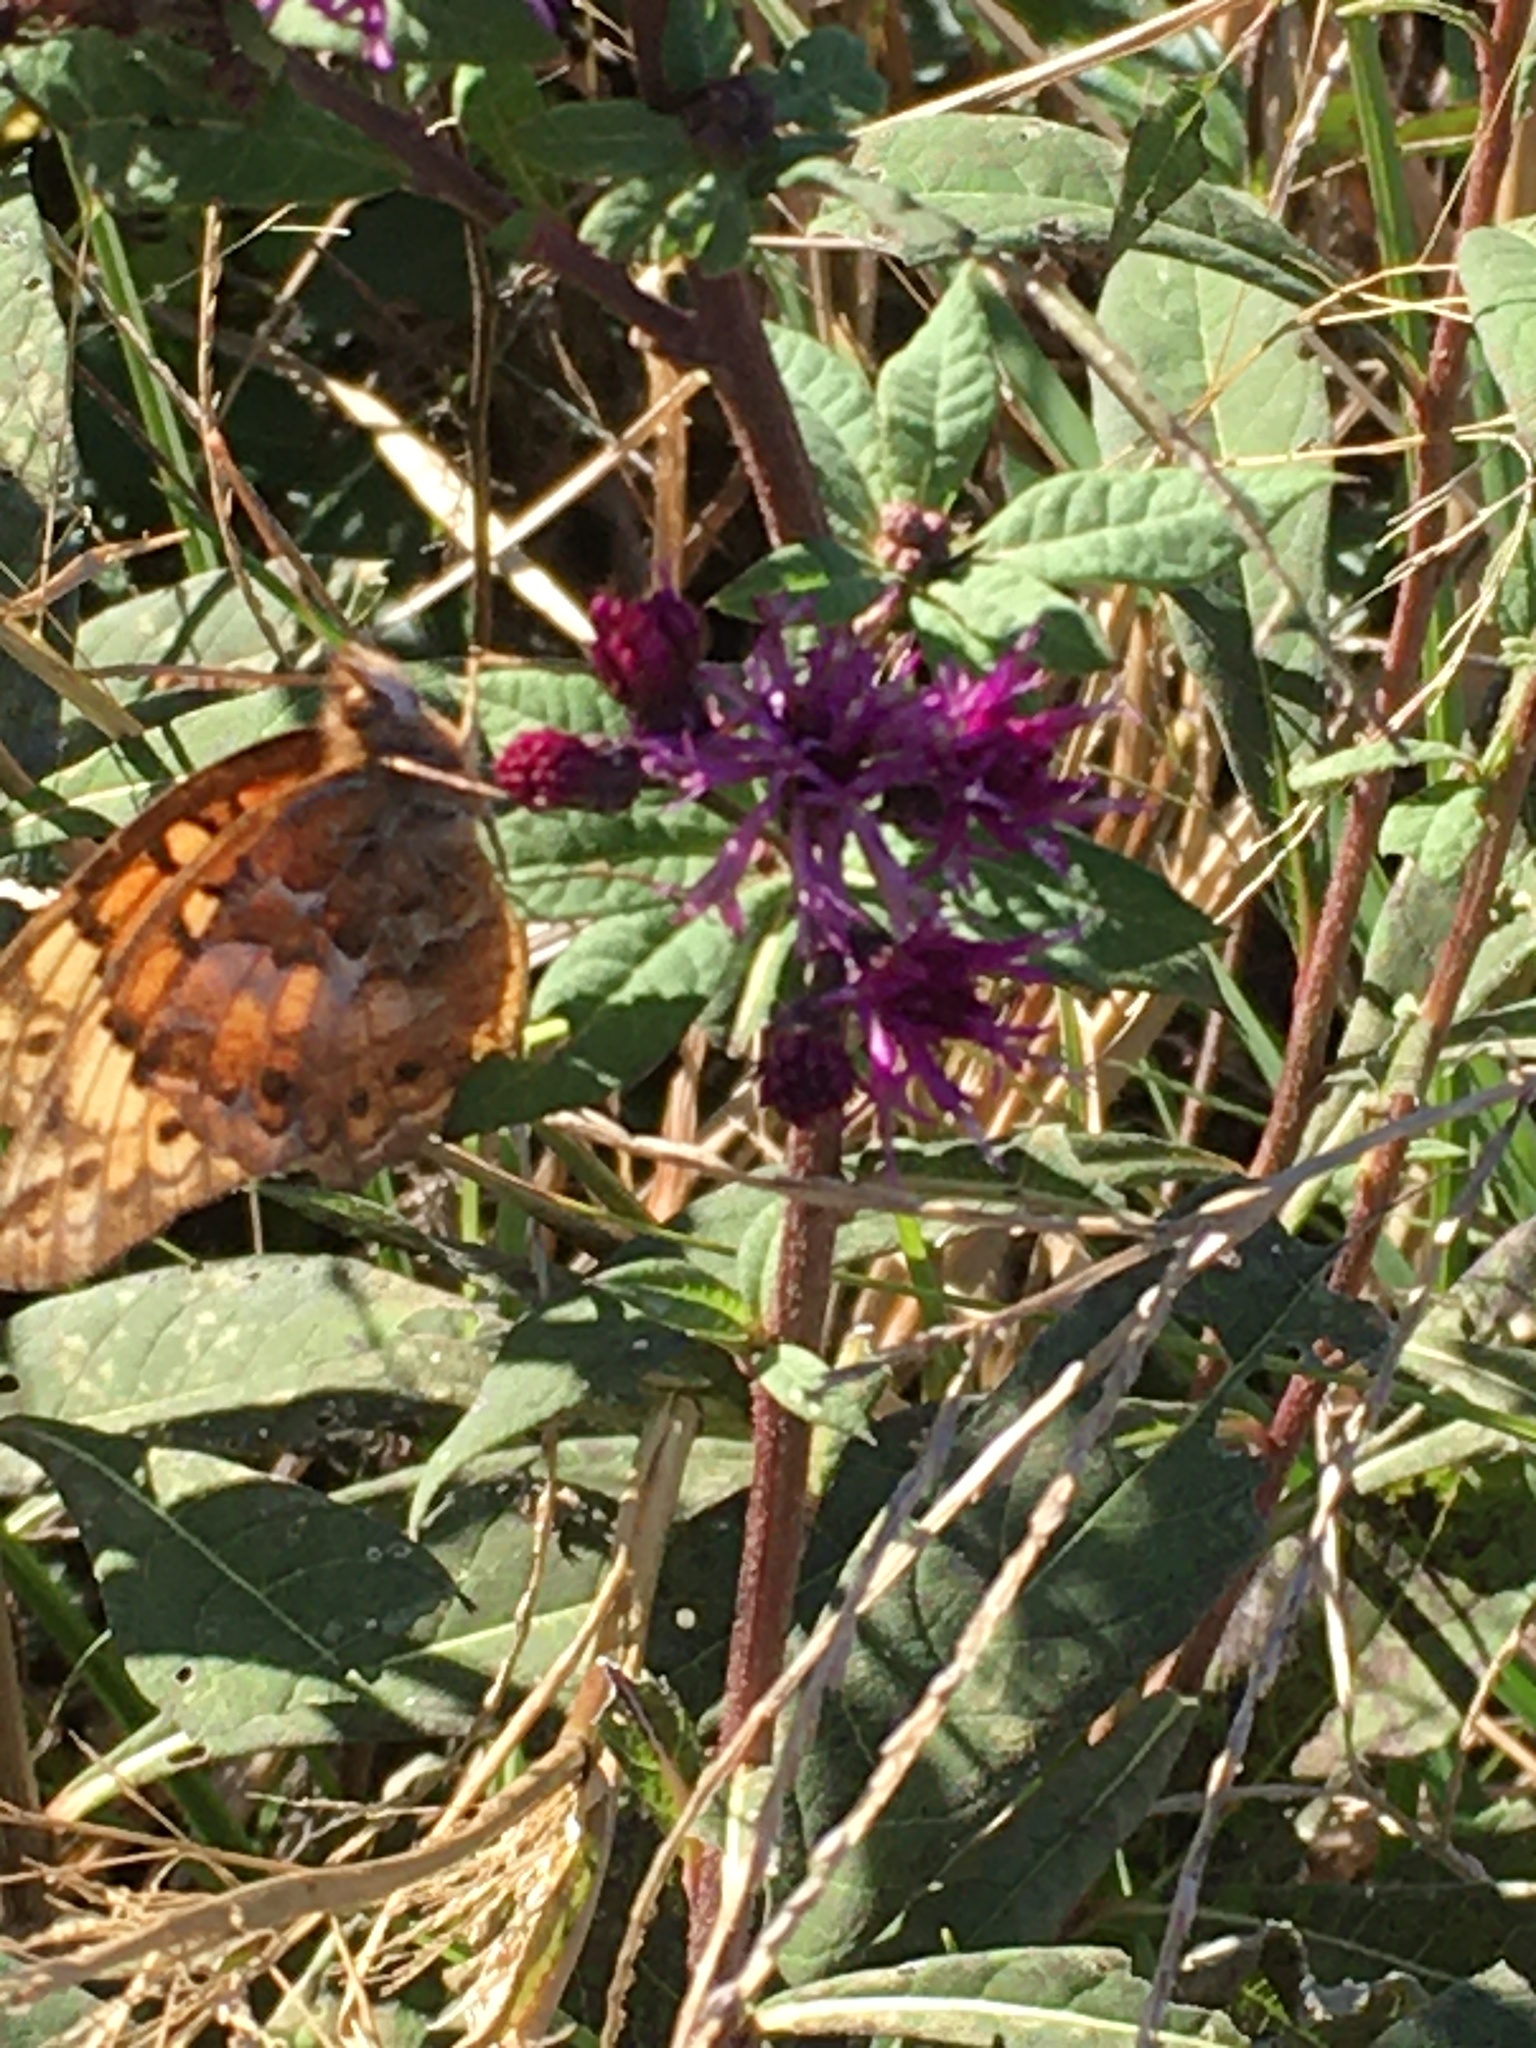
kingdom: Animalia
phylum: Arthropoda
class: Insecta
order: Lepidoptera
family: Nymphalidae
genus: Euptoieta
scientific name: Euptoieta claudia
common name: Variegated fritillary
